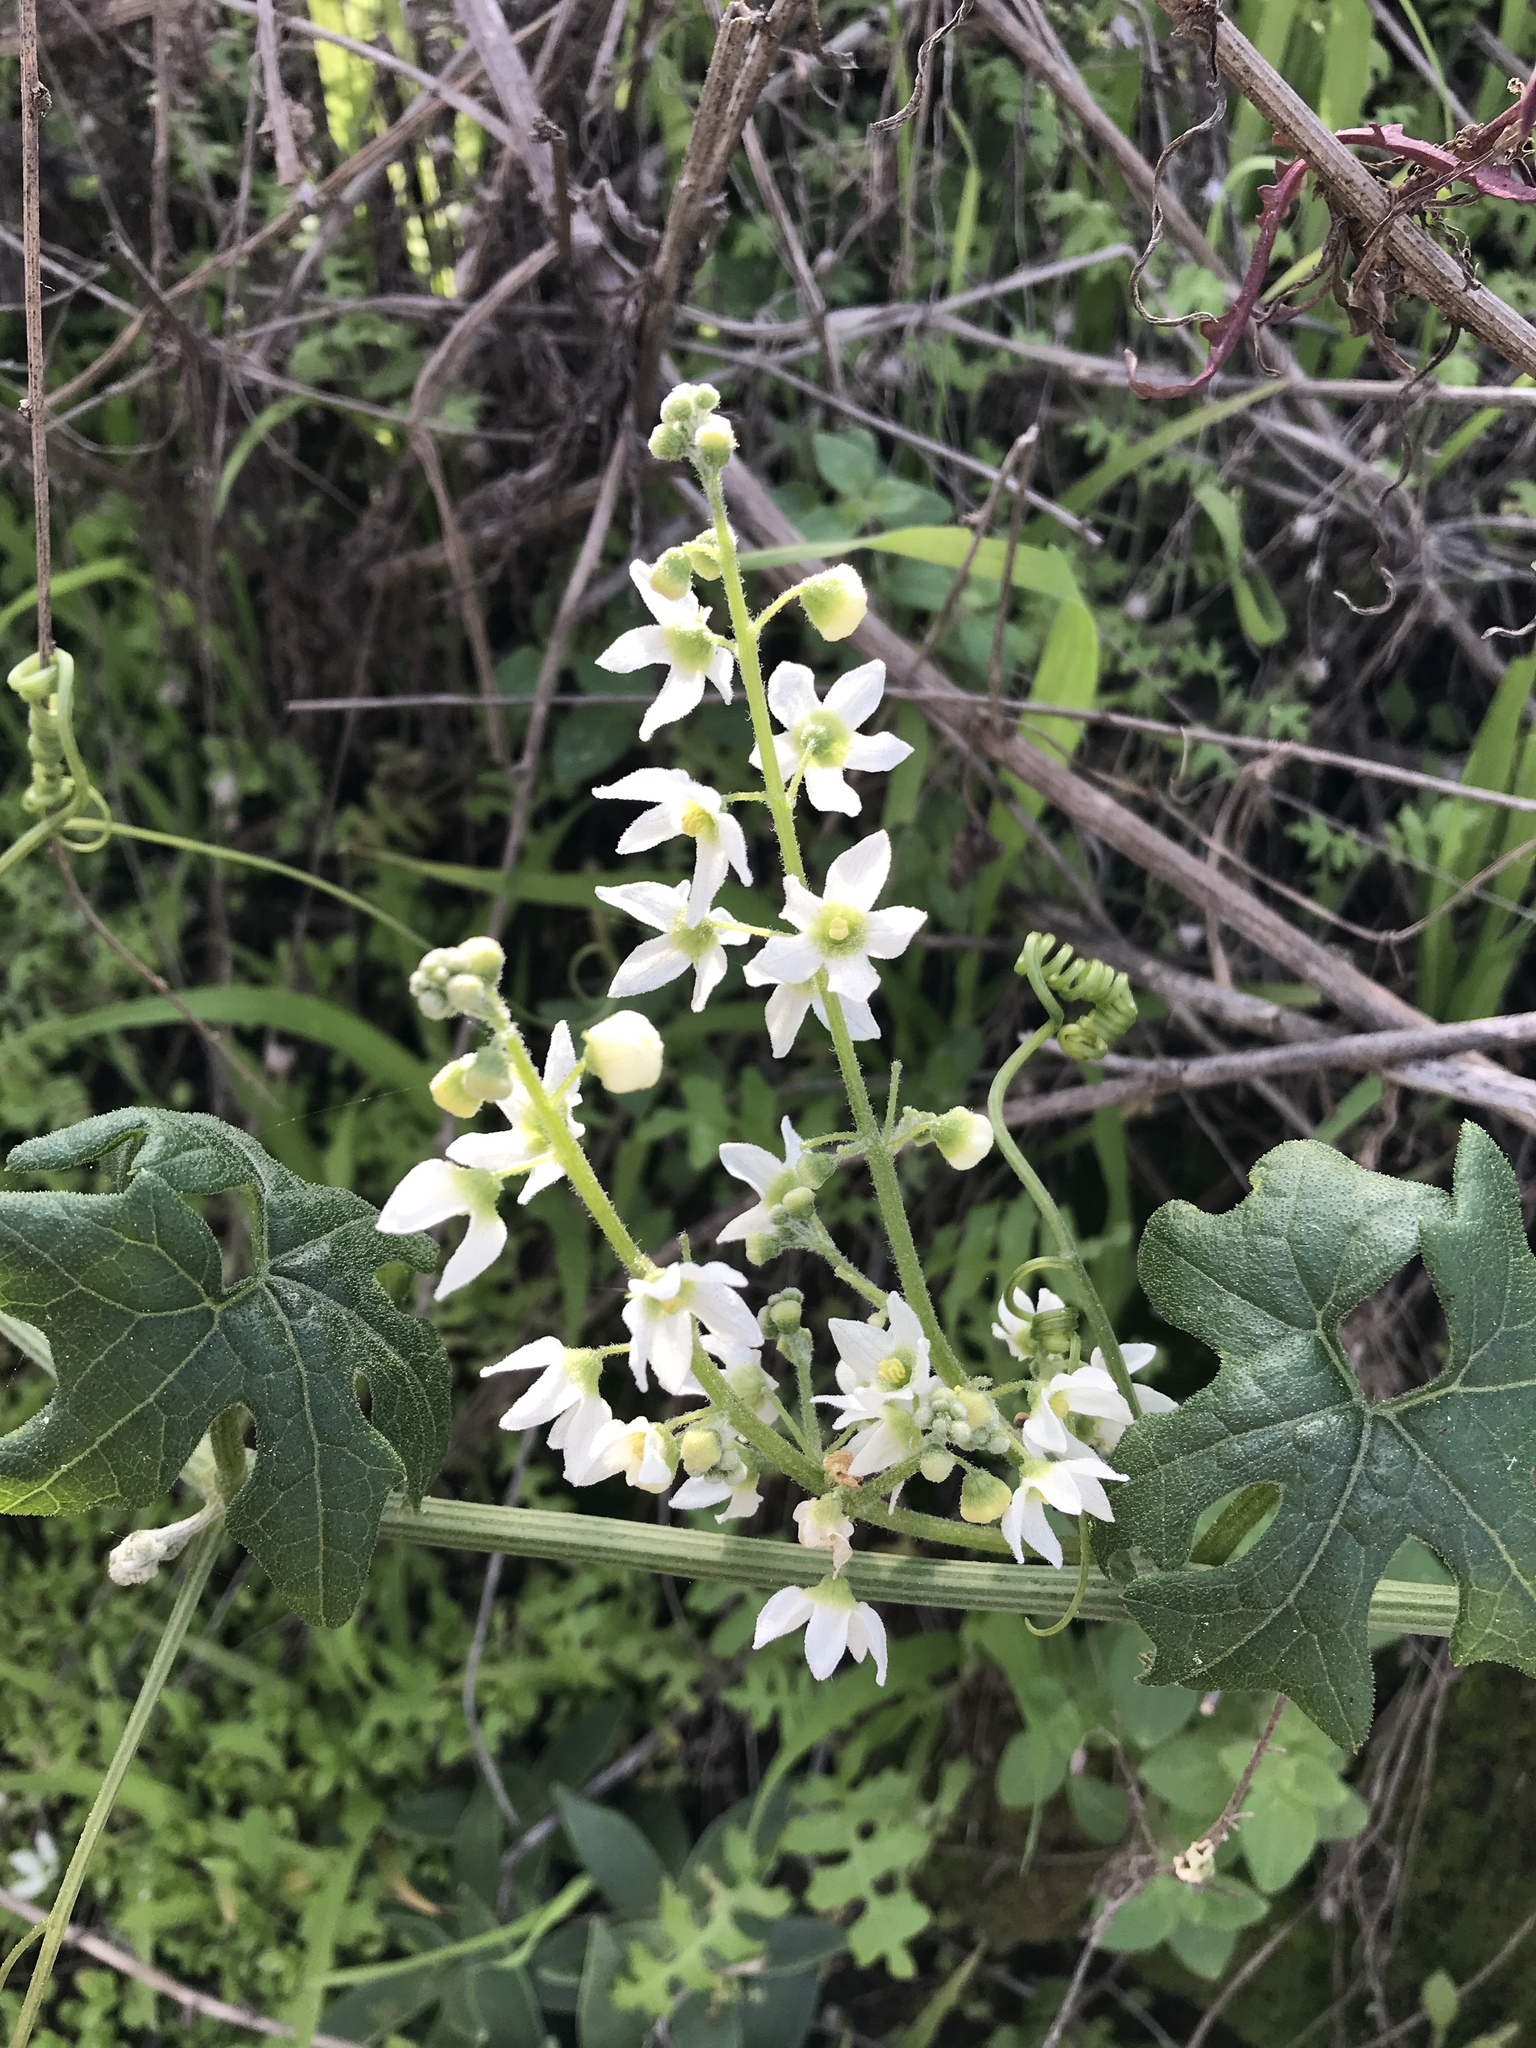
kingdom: Plantae
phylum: Tracheophyta
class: Magnoliopsida
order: Cucurbitales
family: Cucurbitaceae
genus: Marah
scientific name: Marah macrocarpa
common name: Cucamonga manroot
